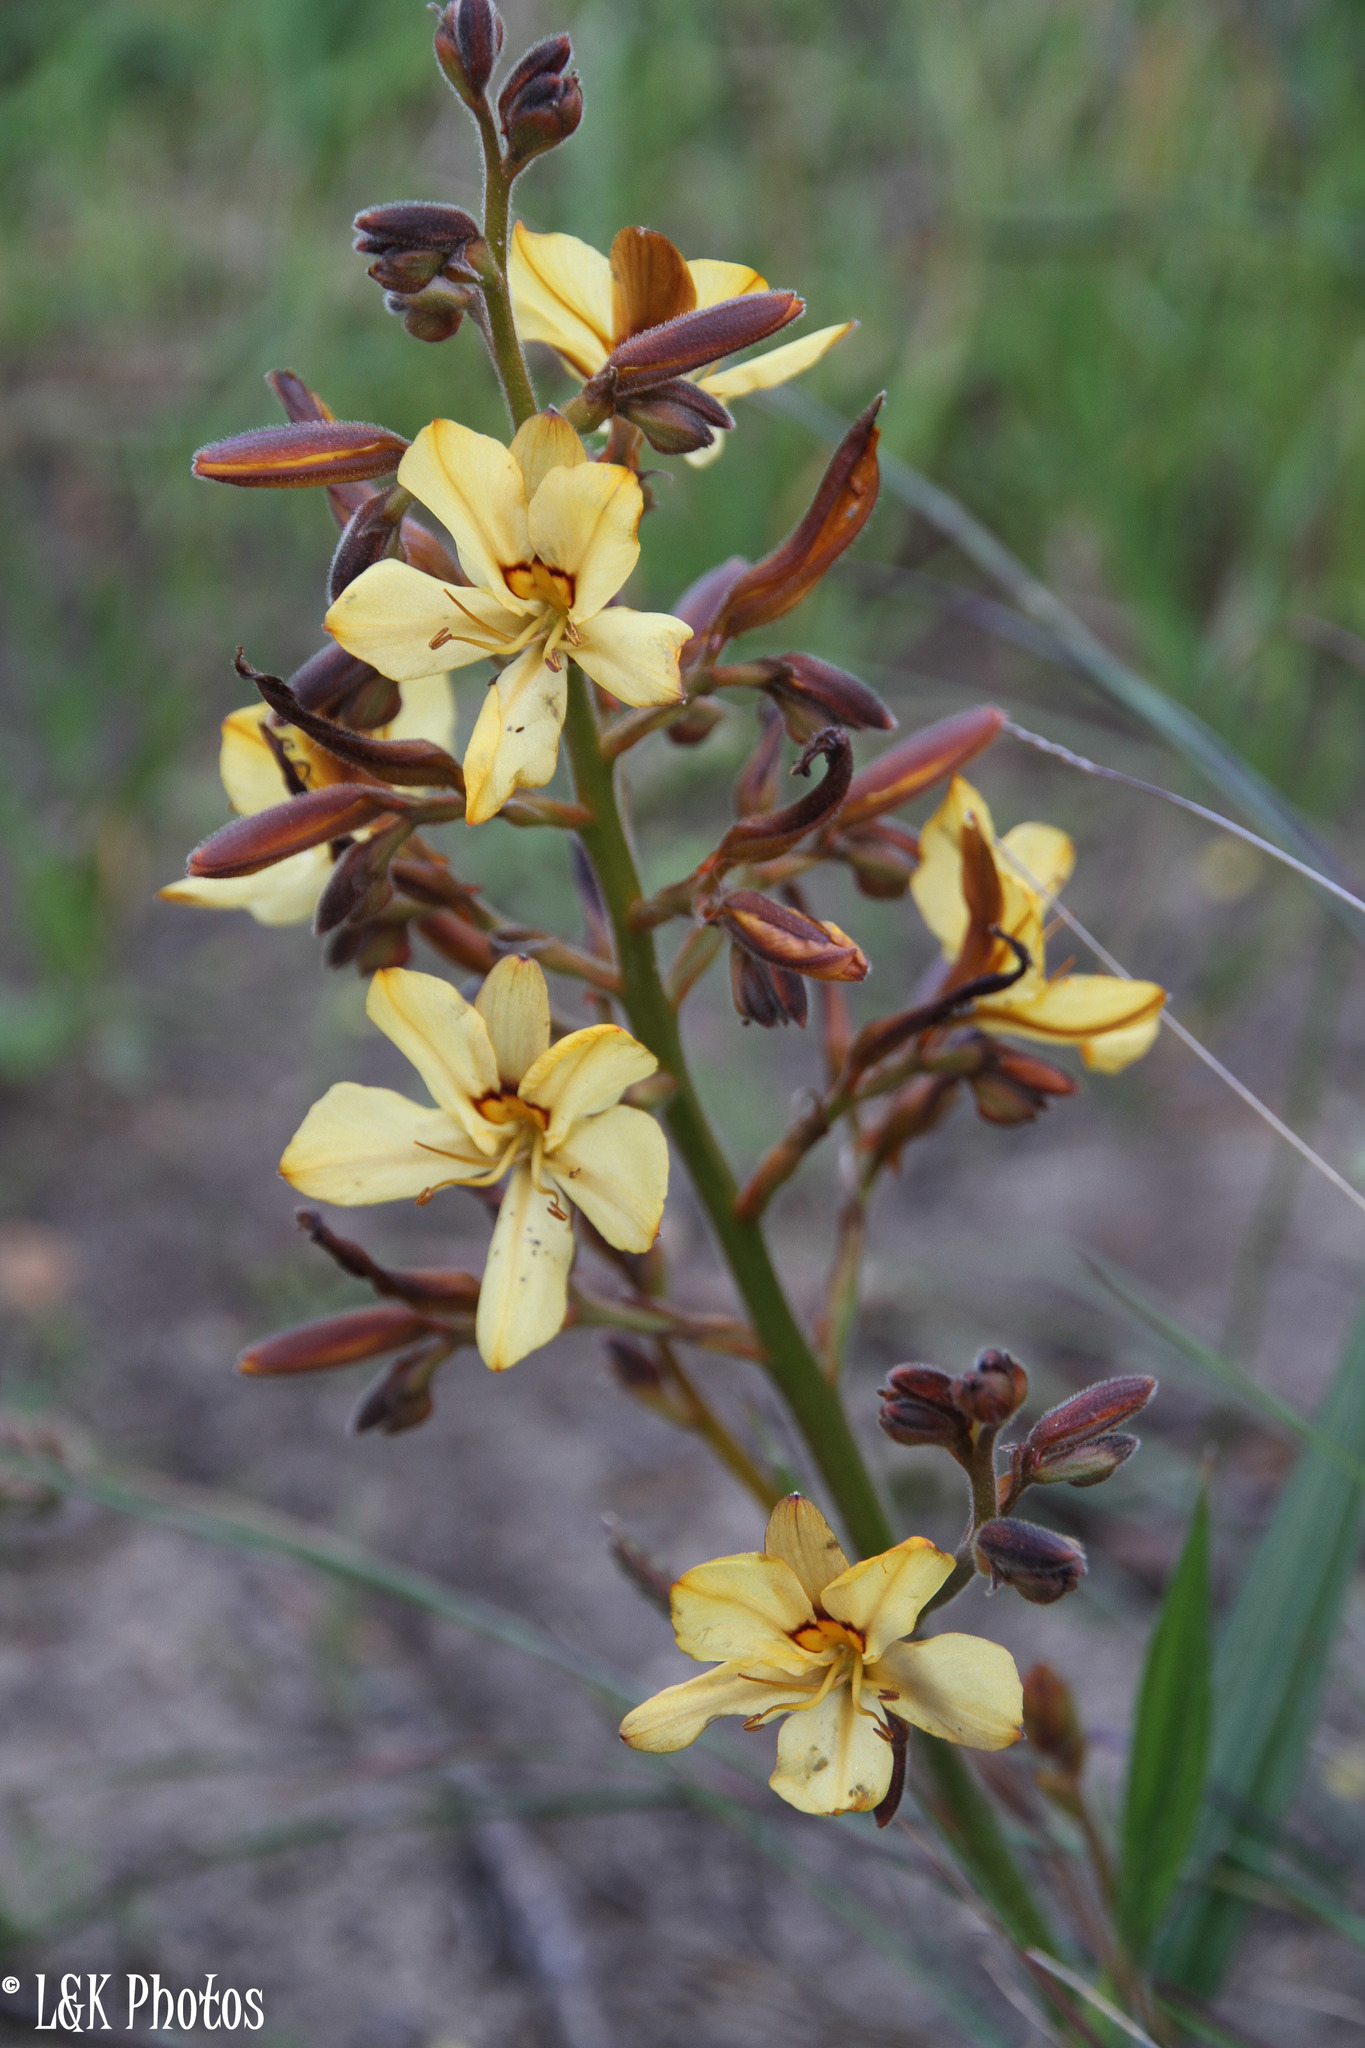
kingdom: Plantae
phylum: Tracheophyta
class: Liliopsida
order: Commelinales
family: Haemodoraceae
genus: Wachendorfia
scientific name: Wachendorfia paniculata
